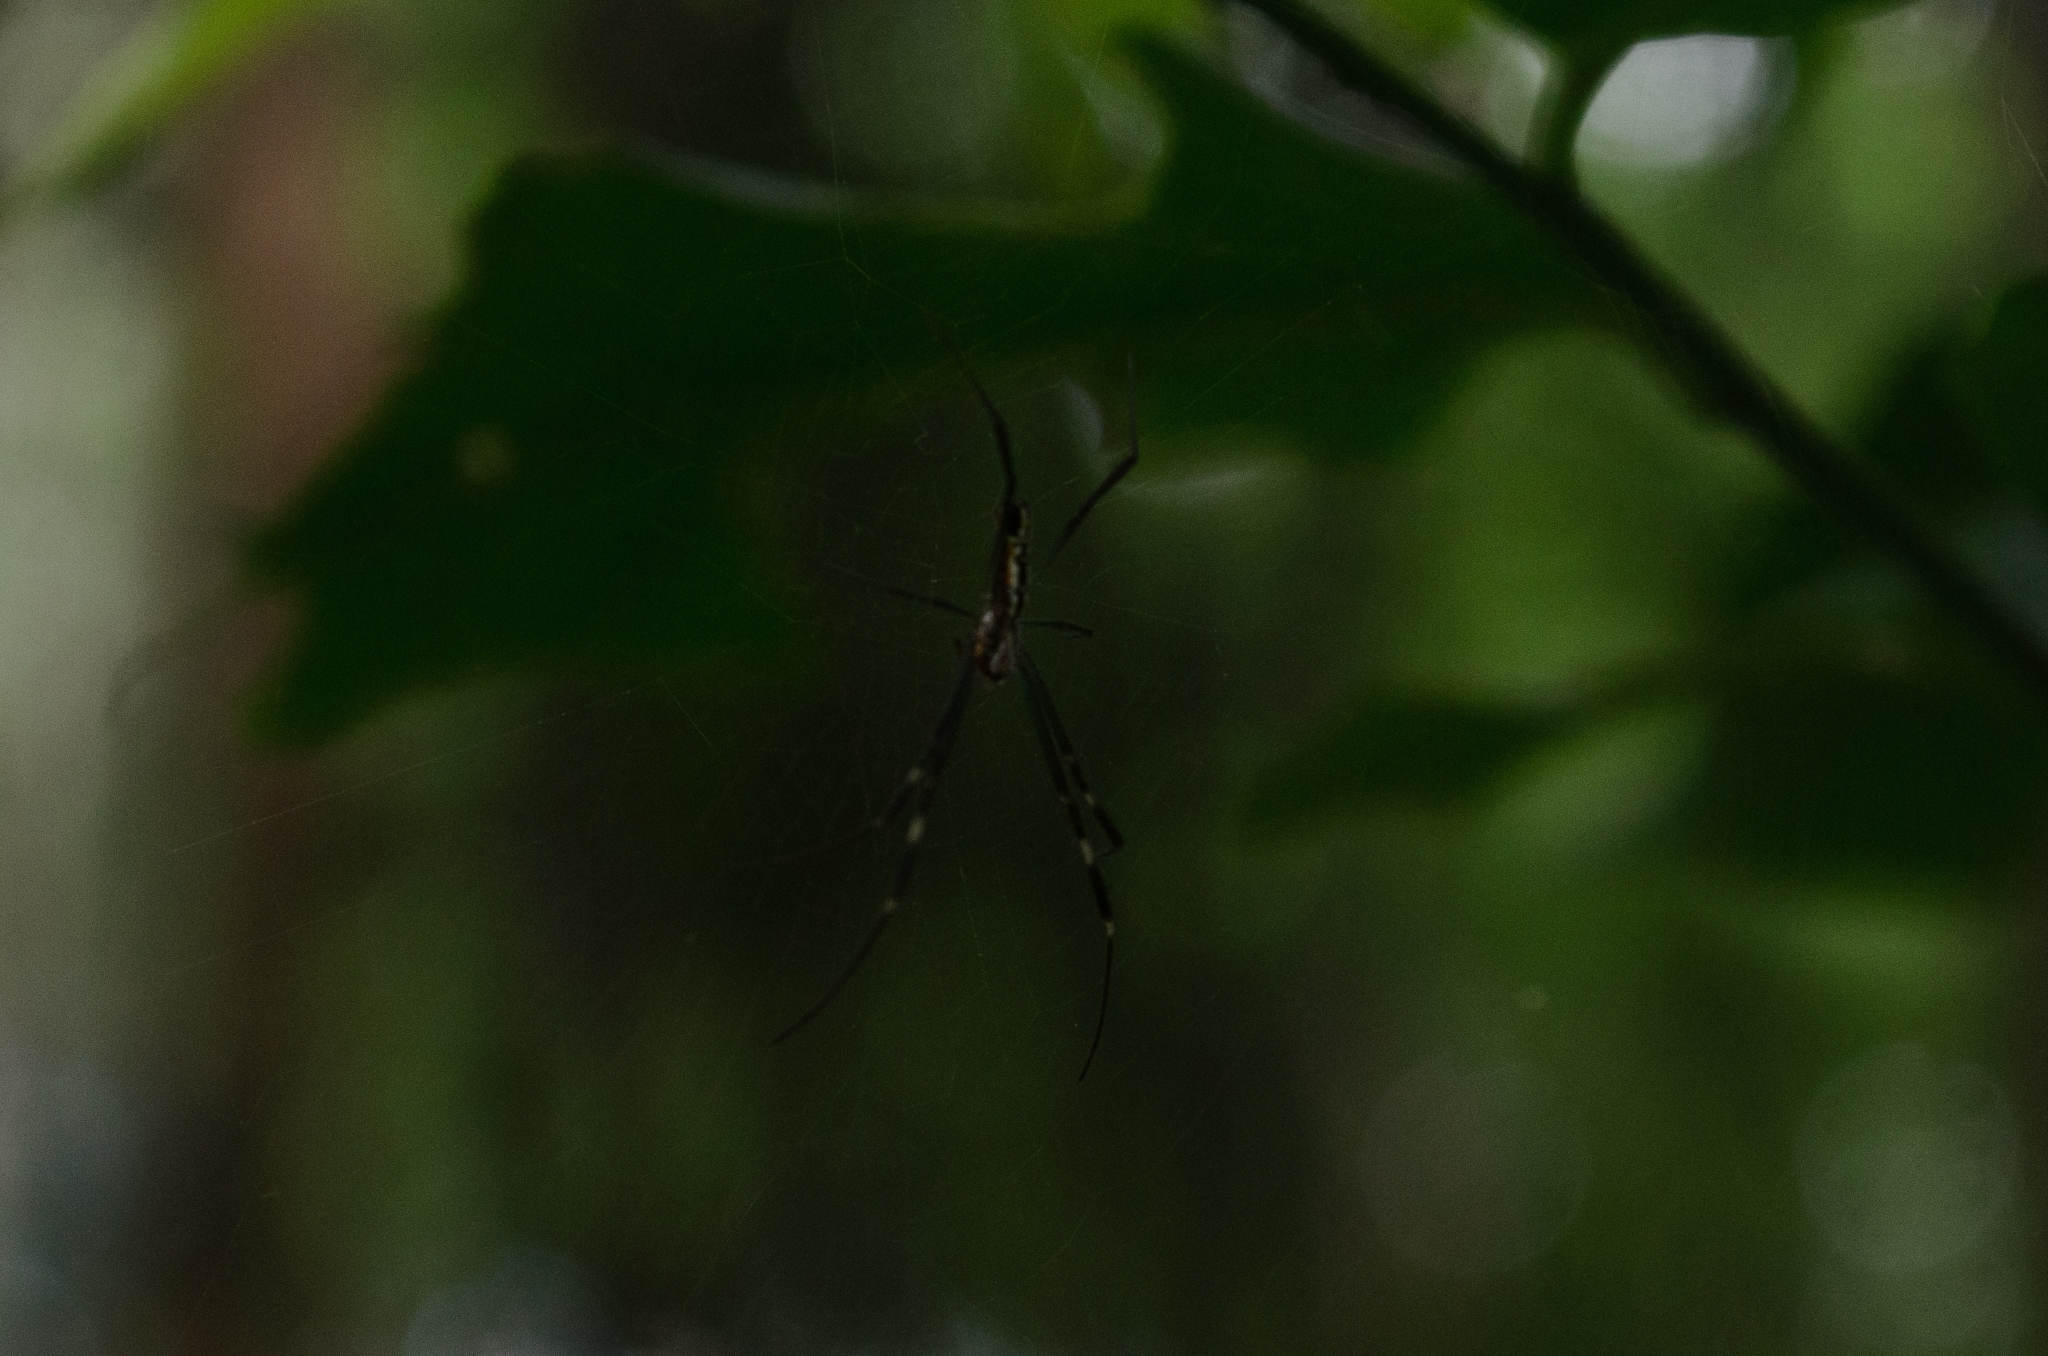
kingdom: Animalia
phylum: Arthropoda
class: Arachnida
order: Araneae
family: Araneidae
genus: Trichonephila
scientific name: Trichonephila clavipes
